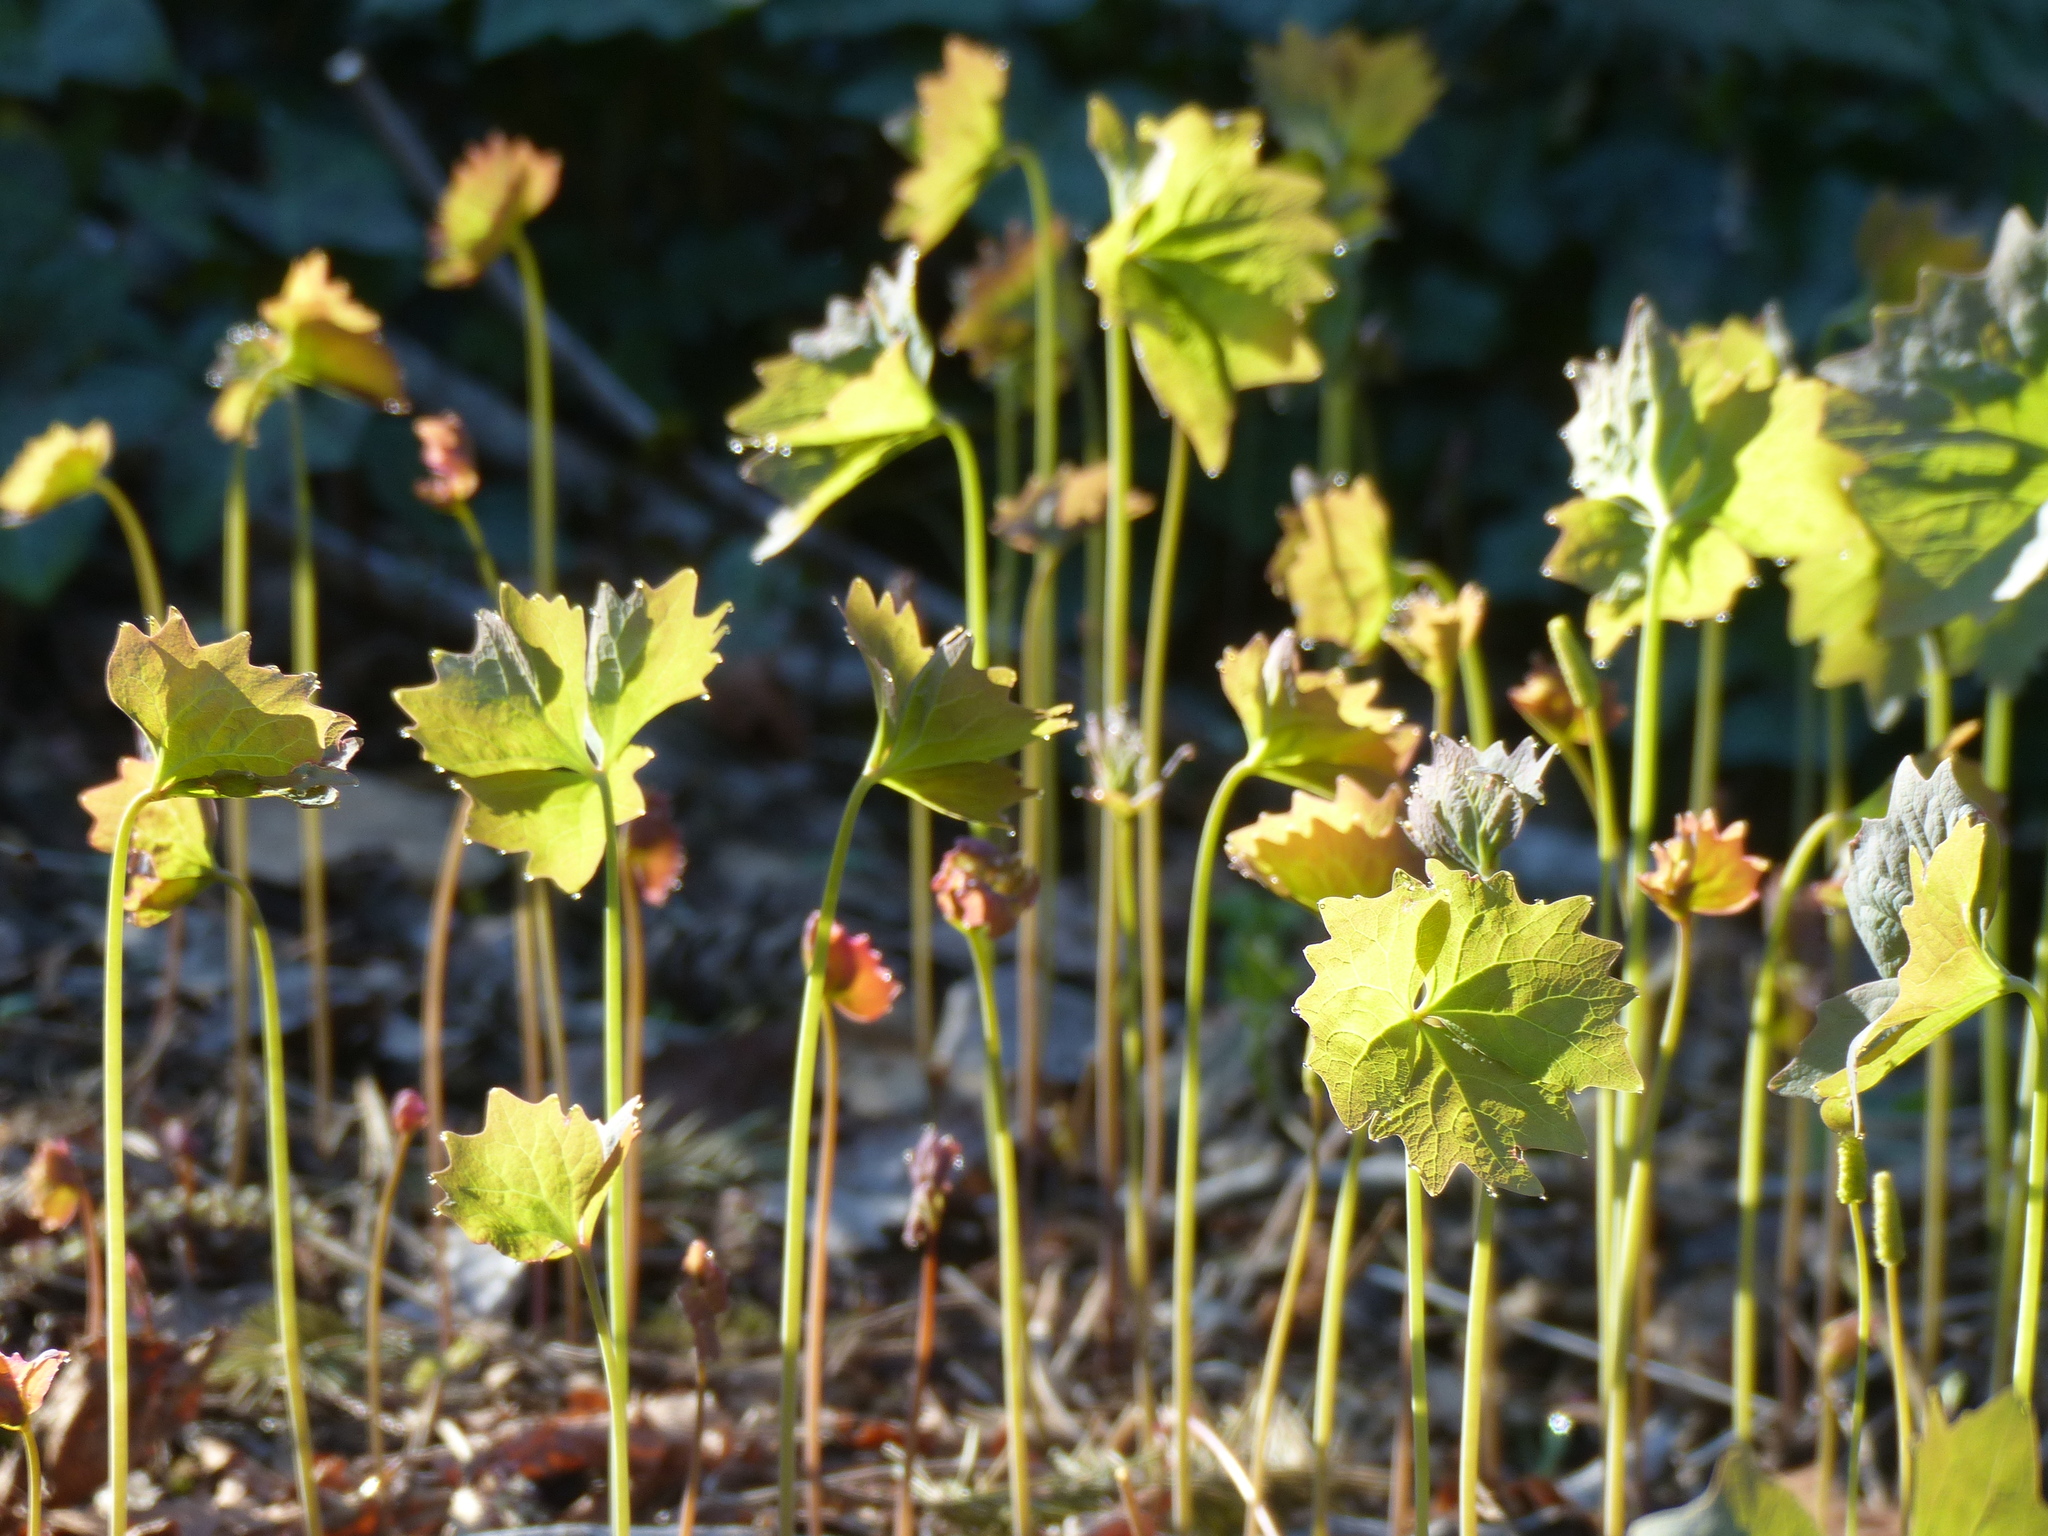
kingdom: Plantae
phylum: Tracheophyta
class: Magnoliopsida
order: Ranunculales
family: Berberidaceae
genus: Achlys
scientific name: Achlys triphylla
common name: Vanilla-leaf
